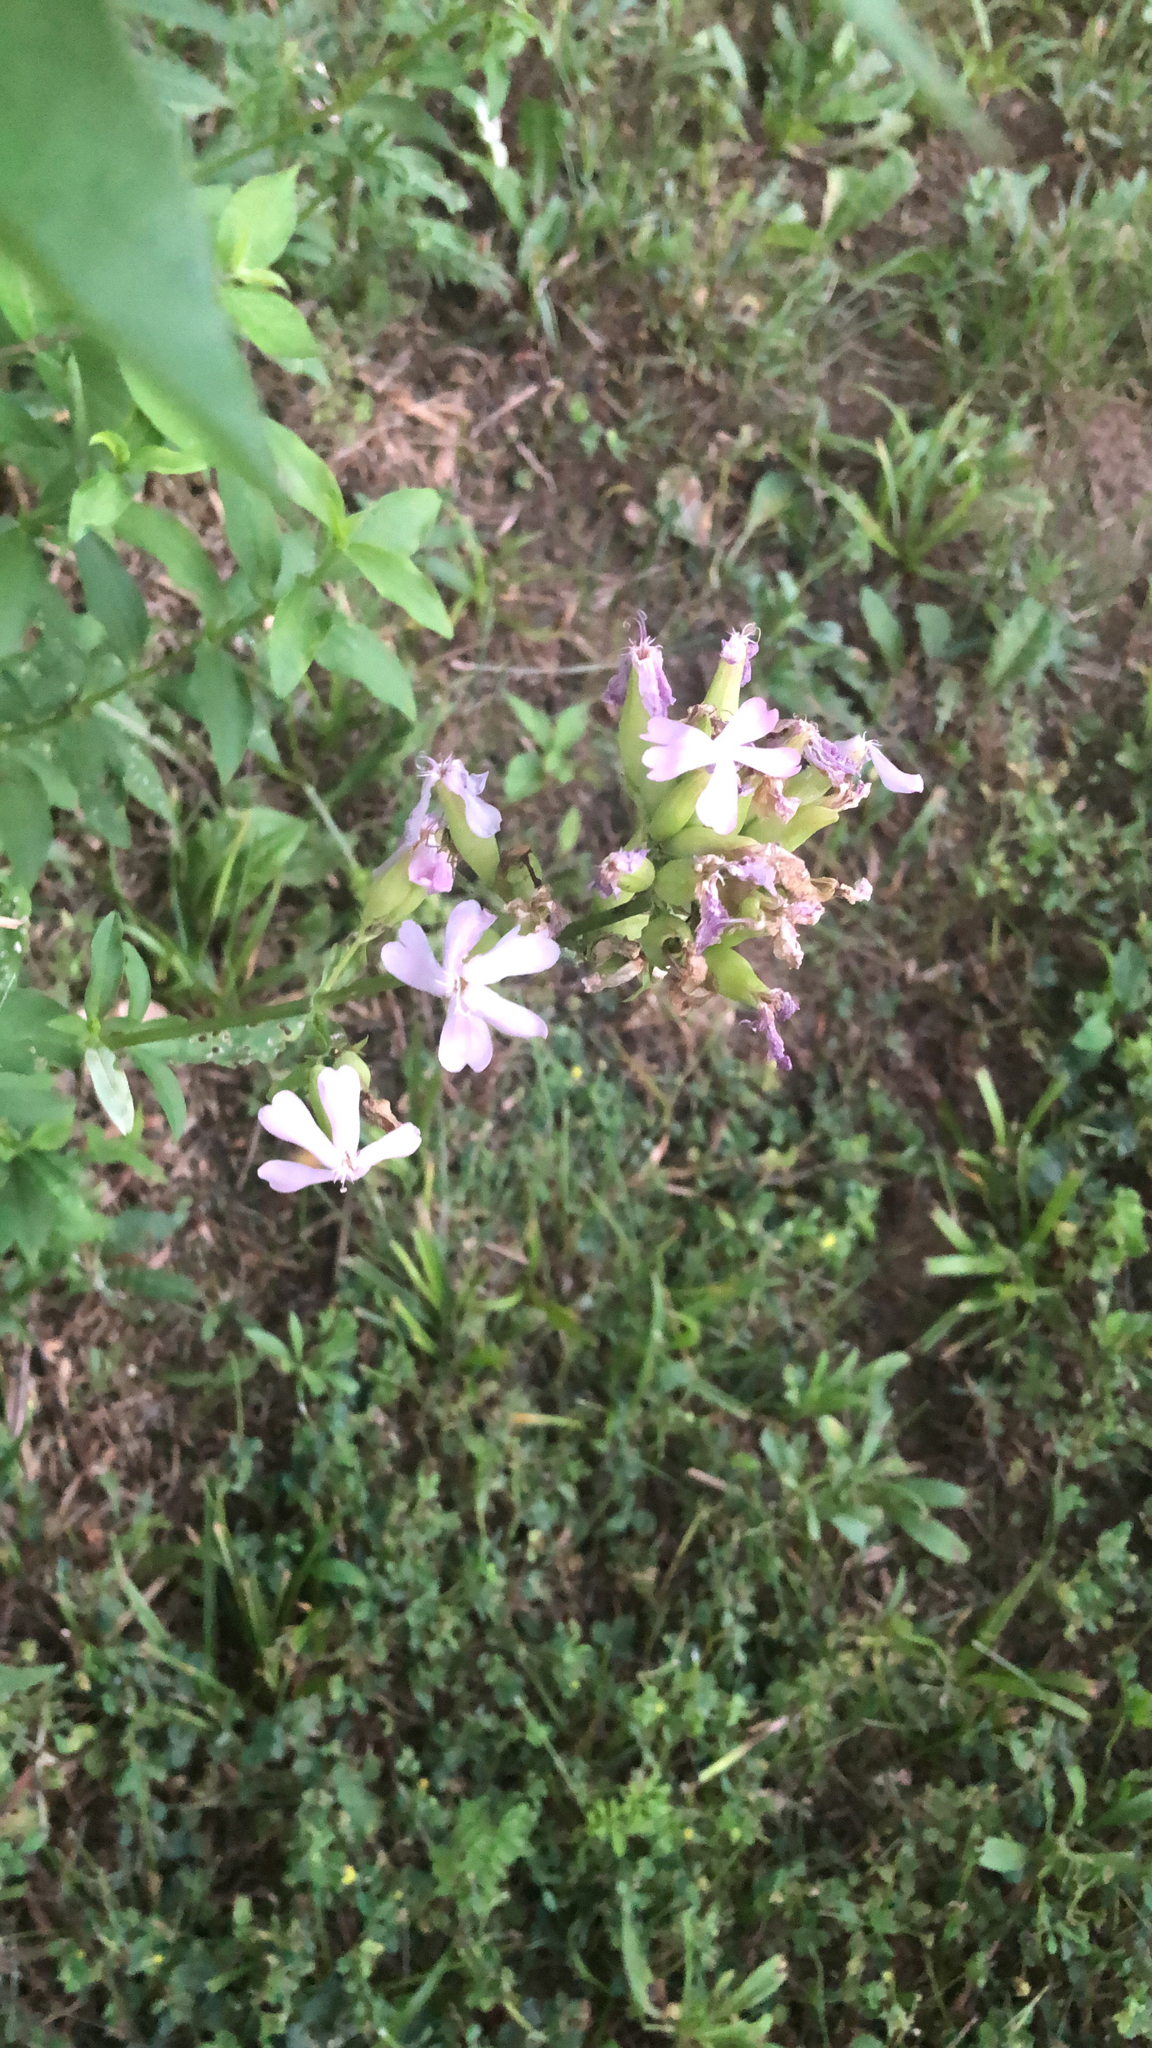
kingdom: Plantae
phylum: Tracheophyta
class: Magnoliopsida
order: Caryophyllales
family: Caryophyllaceae
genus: Saponaria
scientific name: Saponaria officinalis
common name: Soapwort
